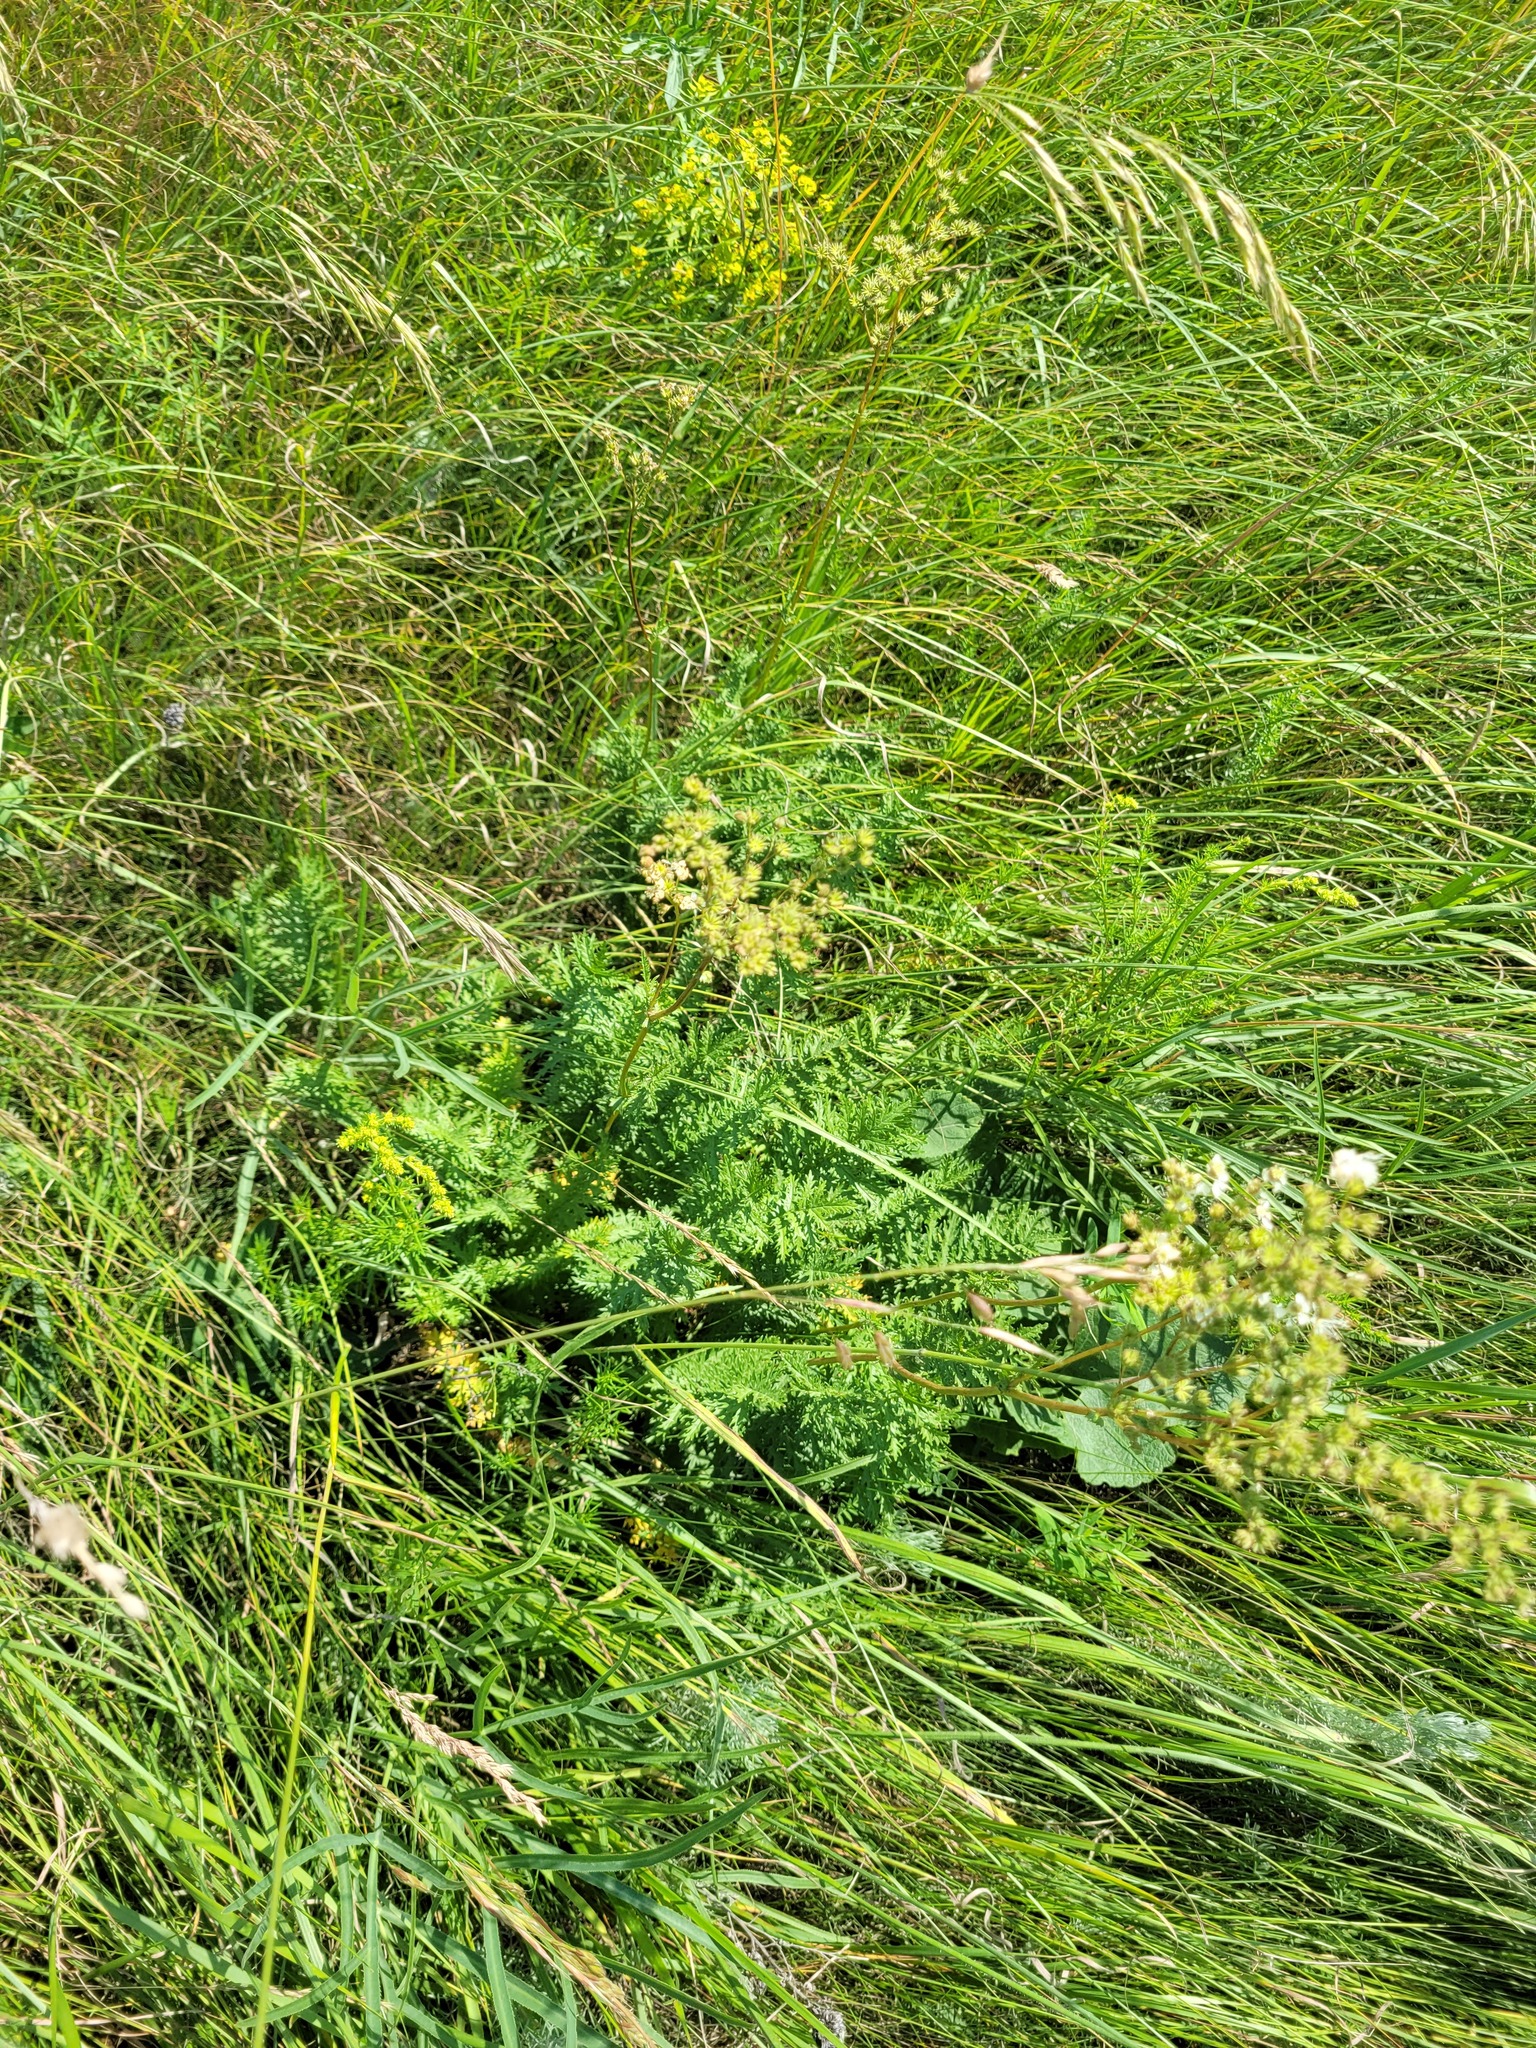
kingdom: Plantae
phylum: Tracheophyta
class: Magnoliopsida
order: Rosales
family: Rosaceae
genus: Filipendula
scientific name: Filipendula vulgaris
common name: Dropwort
